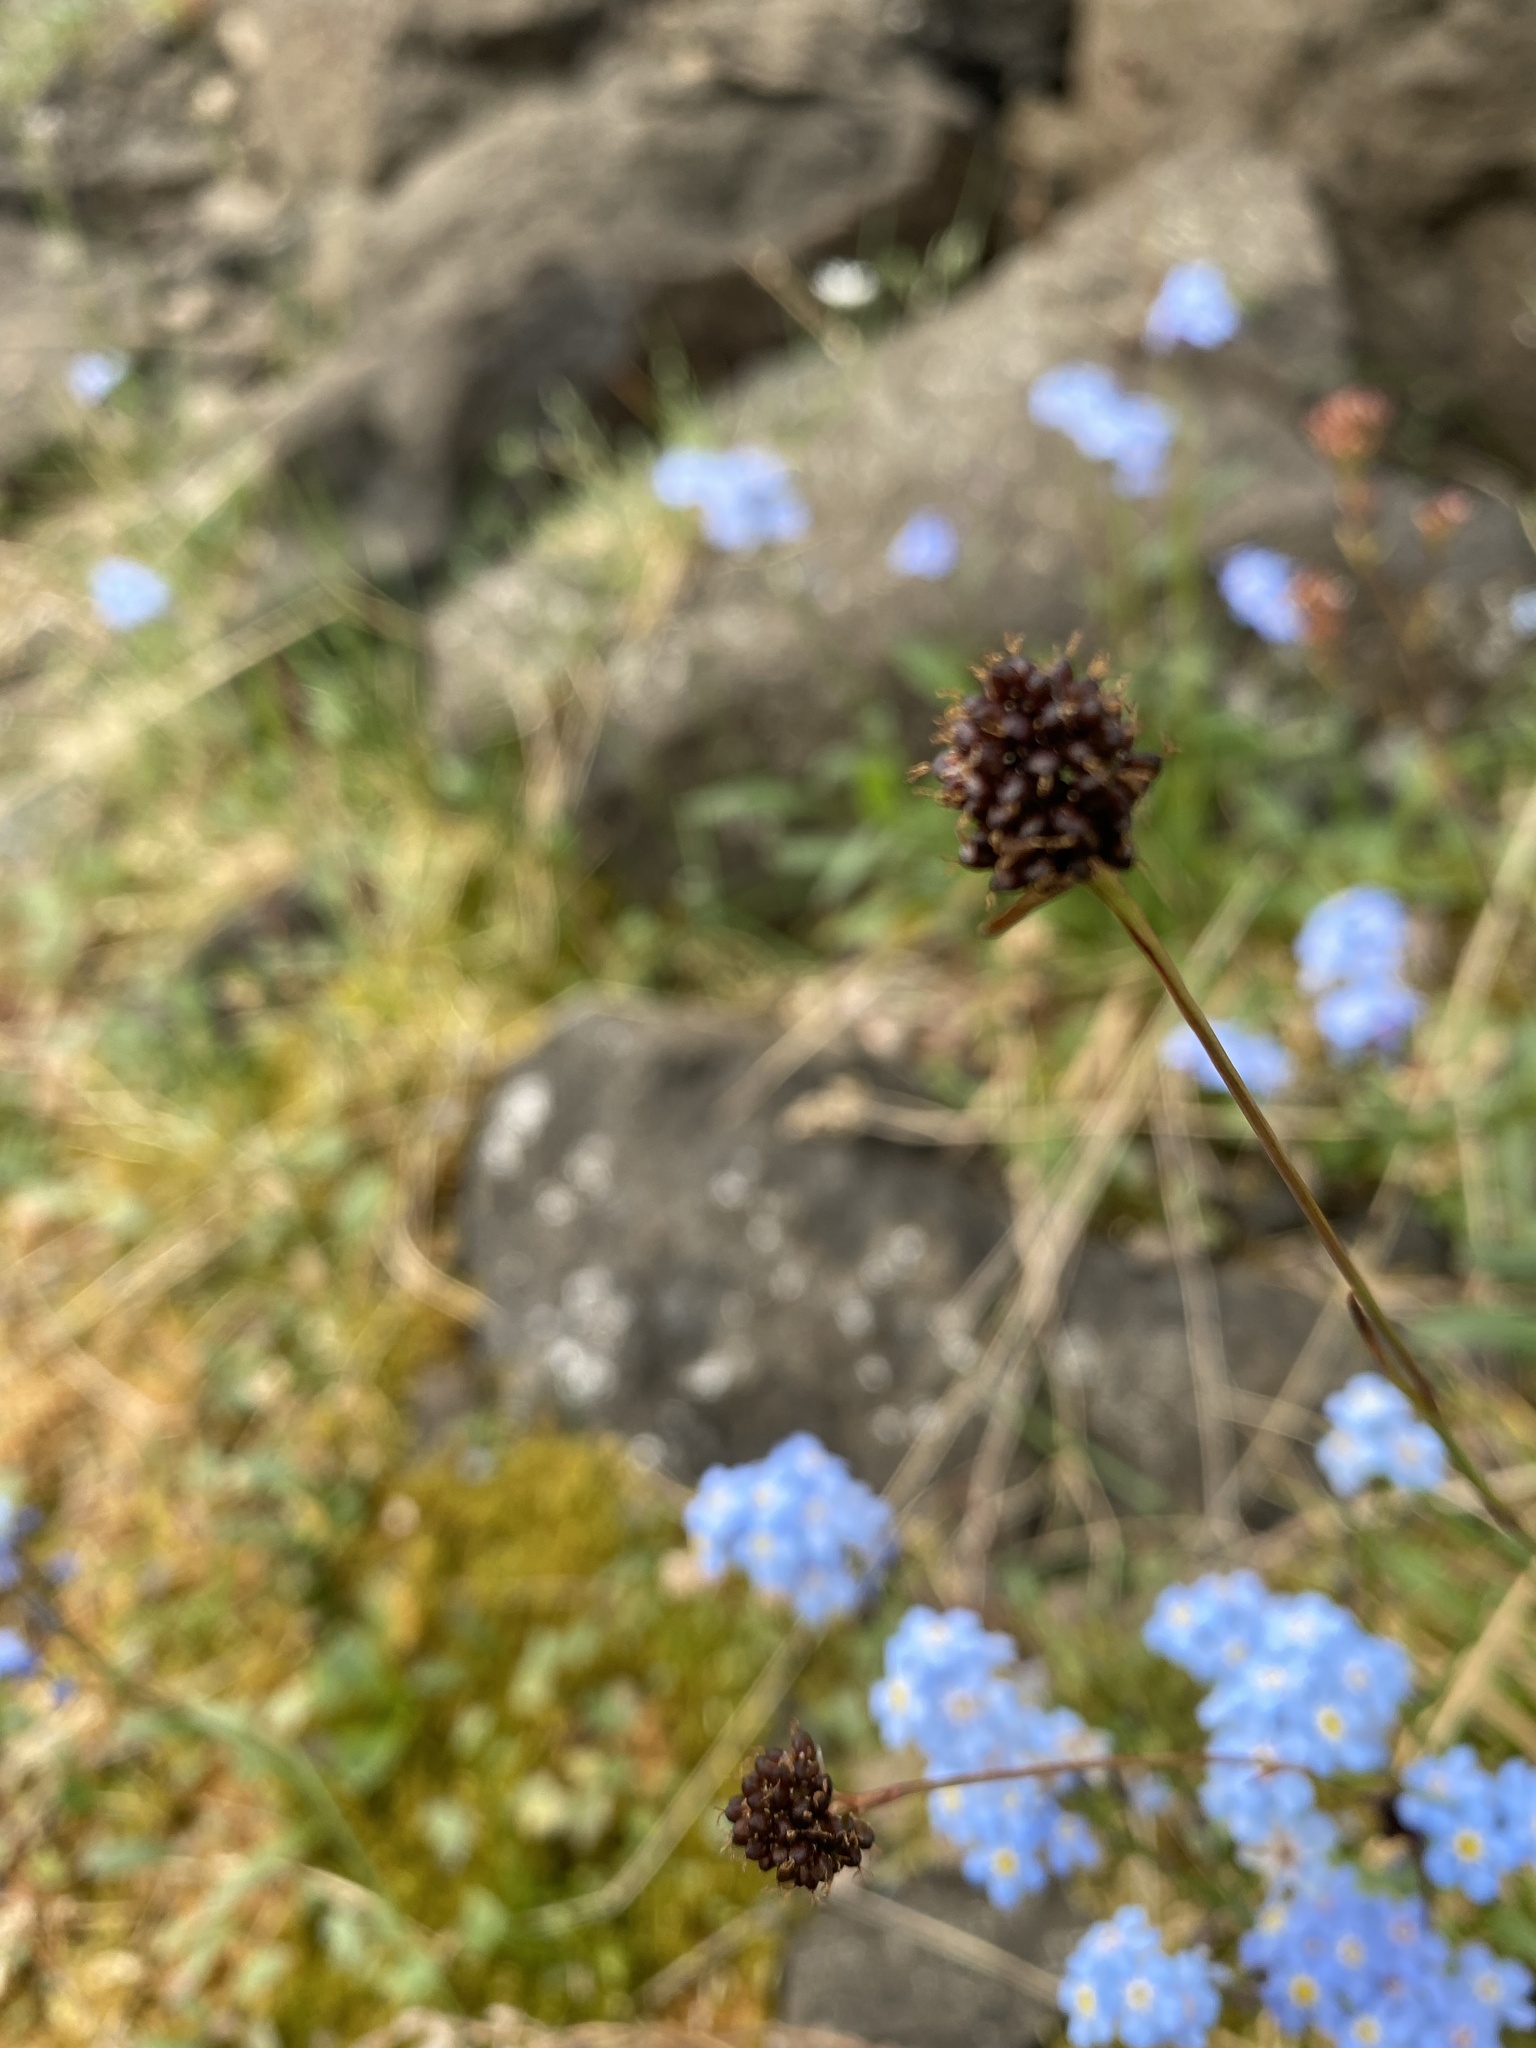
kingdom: Plantae
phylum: Tracheophyta
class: Liliopsida
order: Poales
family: Juncaceae
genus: Luzula
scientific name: Luzula nivalis
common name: Arctic woodrush
